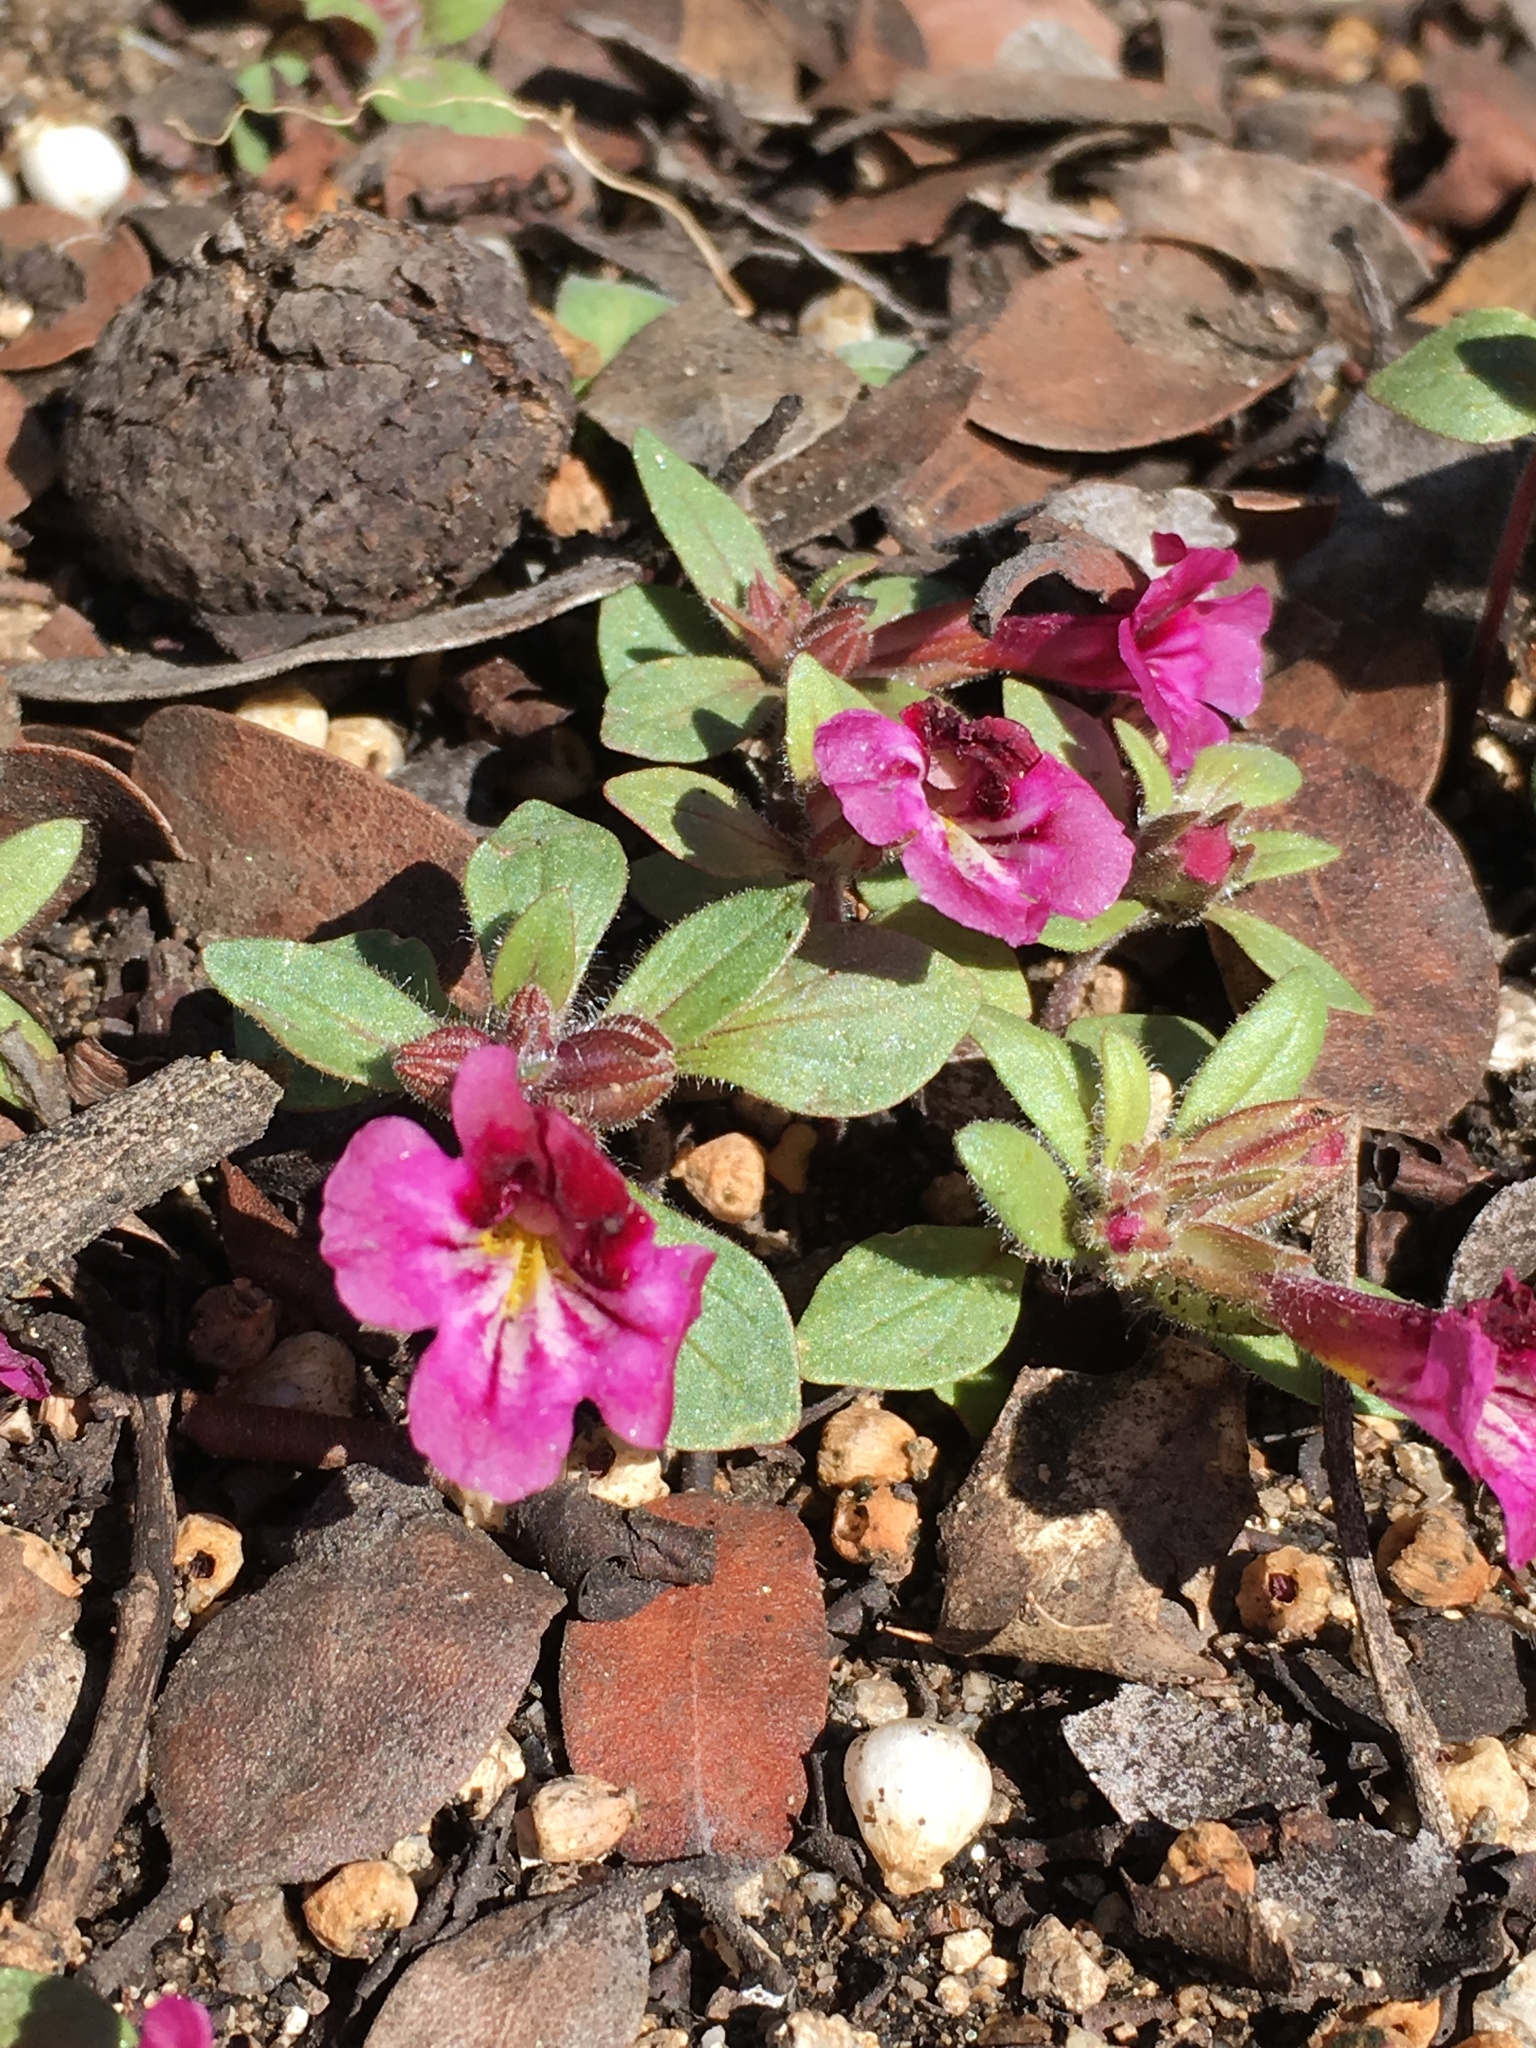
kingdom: Plantae
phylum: Tracheophyta
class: Magnoliopsida
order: Lamiales
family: Phrymaceae
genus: Diplacus
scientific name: Diplacus constrictus
